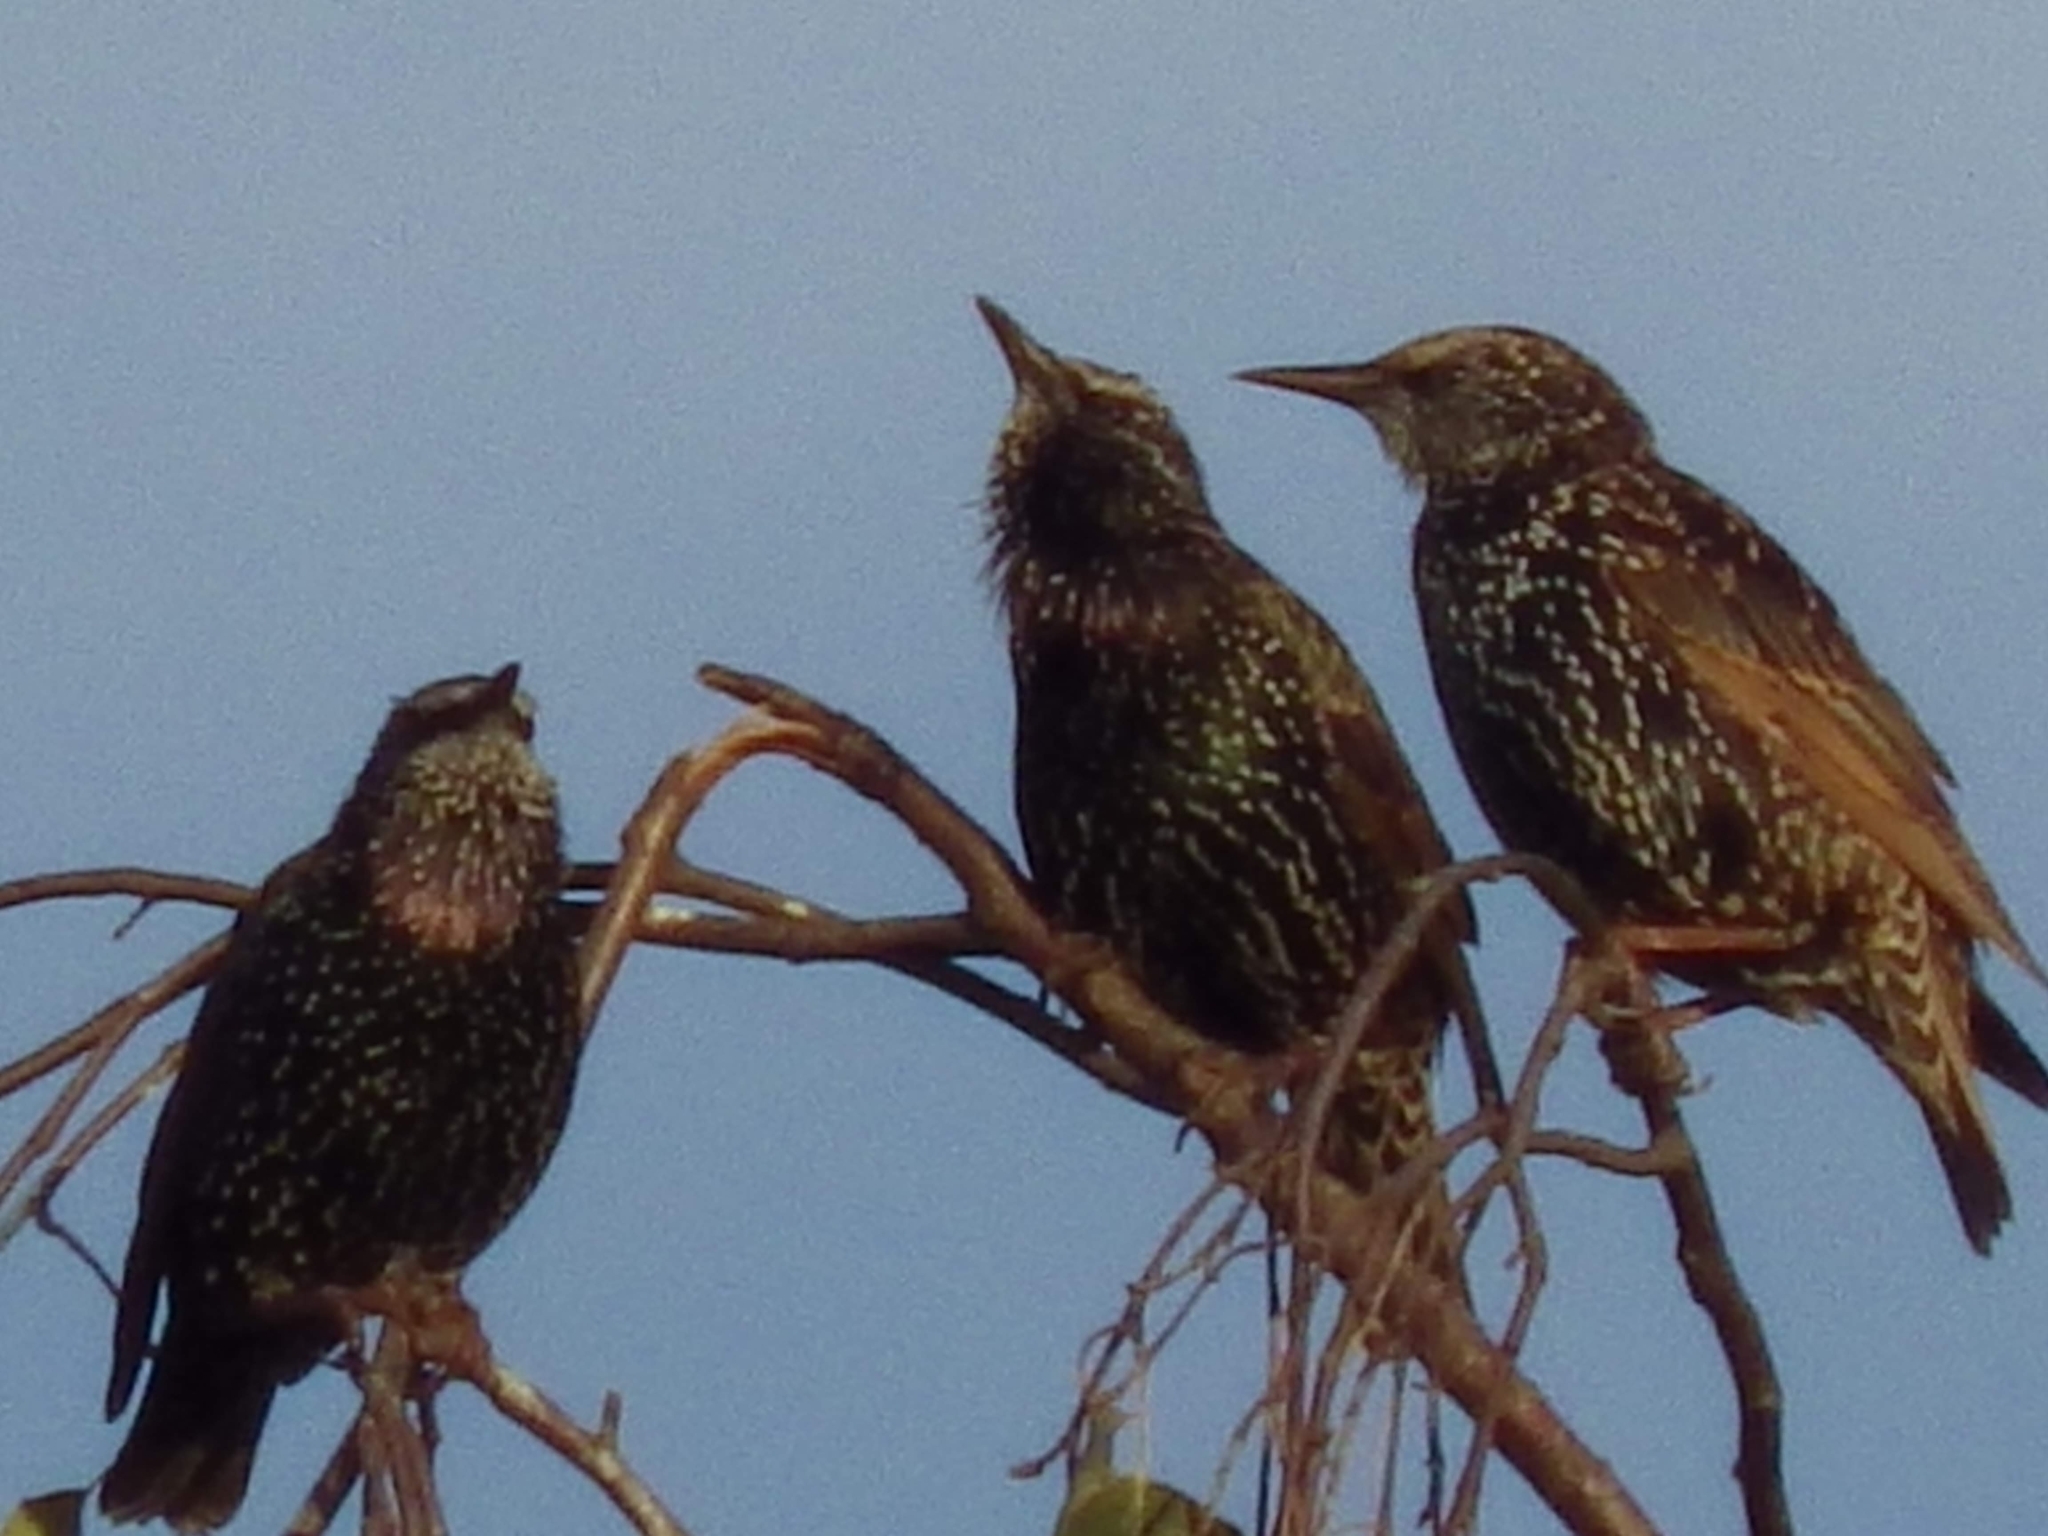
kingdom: Animalia
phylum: Chordata
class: Aves
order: Passeriformes
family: Sturnidae
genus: Sturnus
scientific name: Sturnus vulgaris
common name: Common starling
